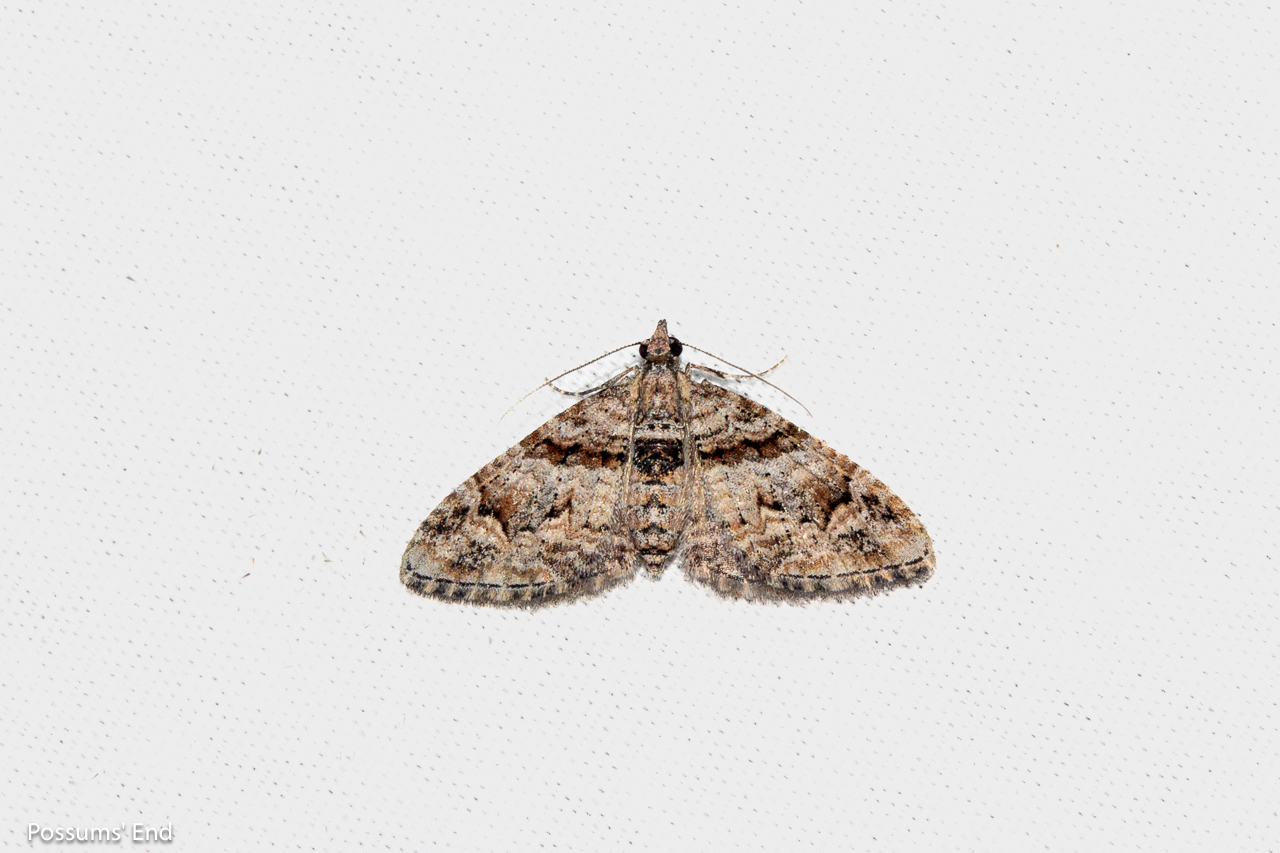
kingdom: Animalia
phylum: Arthropoda
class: Insecta
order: Lepidoptera
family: Geometridae
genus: Phrissogonus
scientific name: Phrissogonus laticostata
